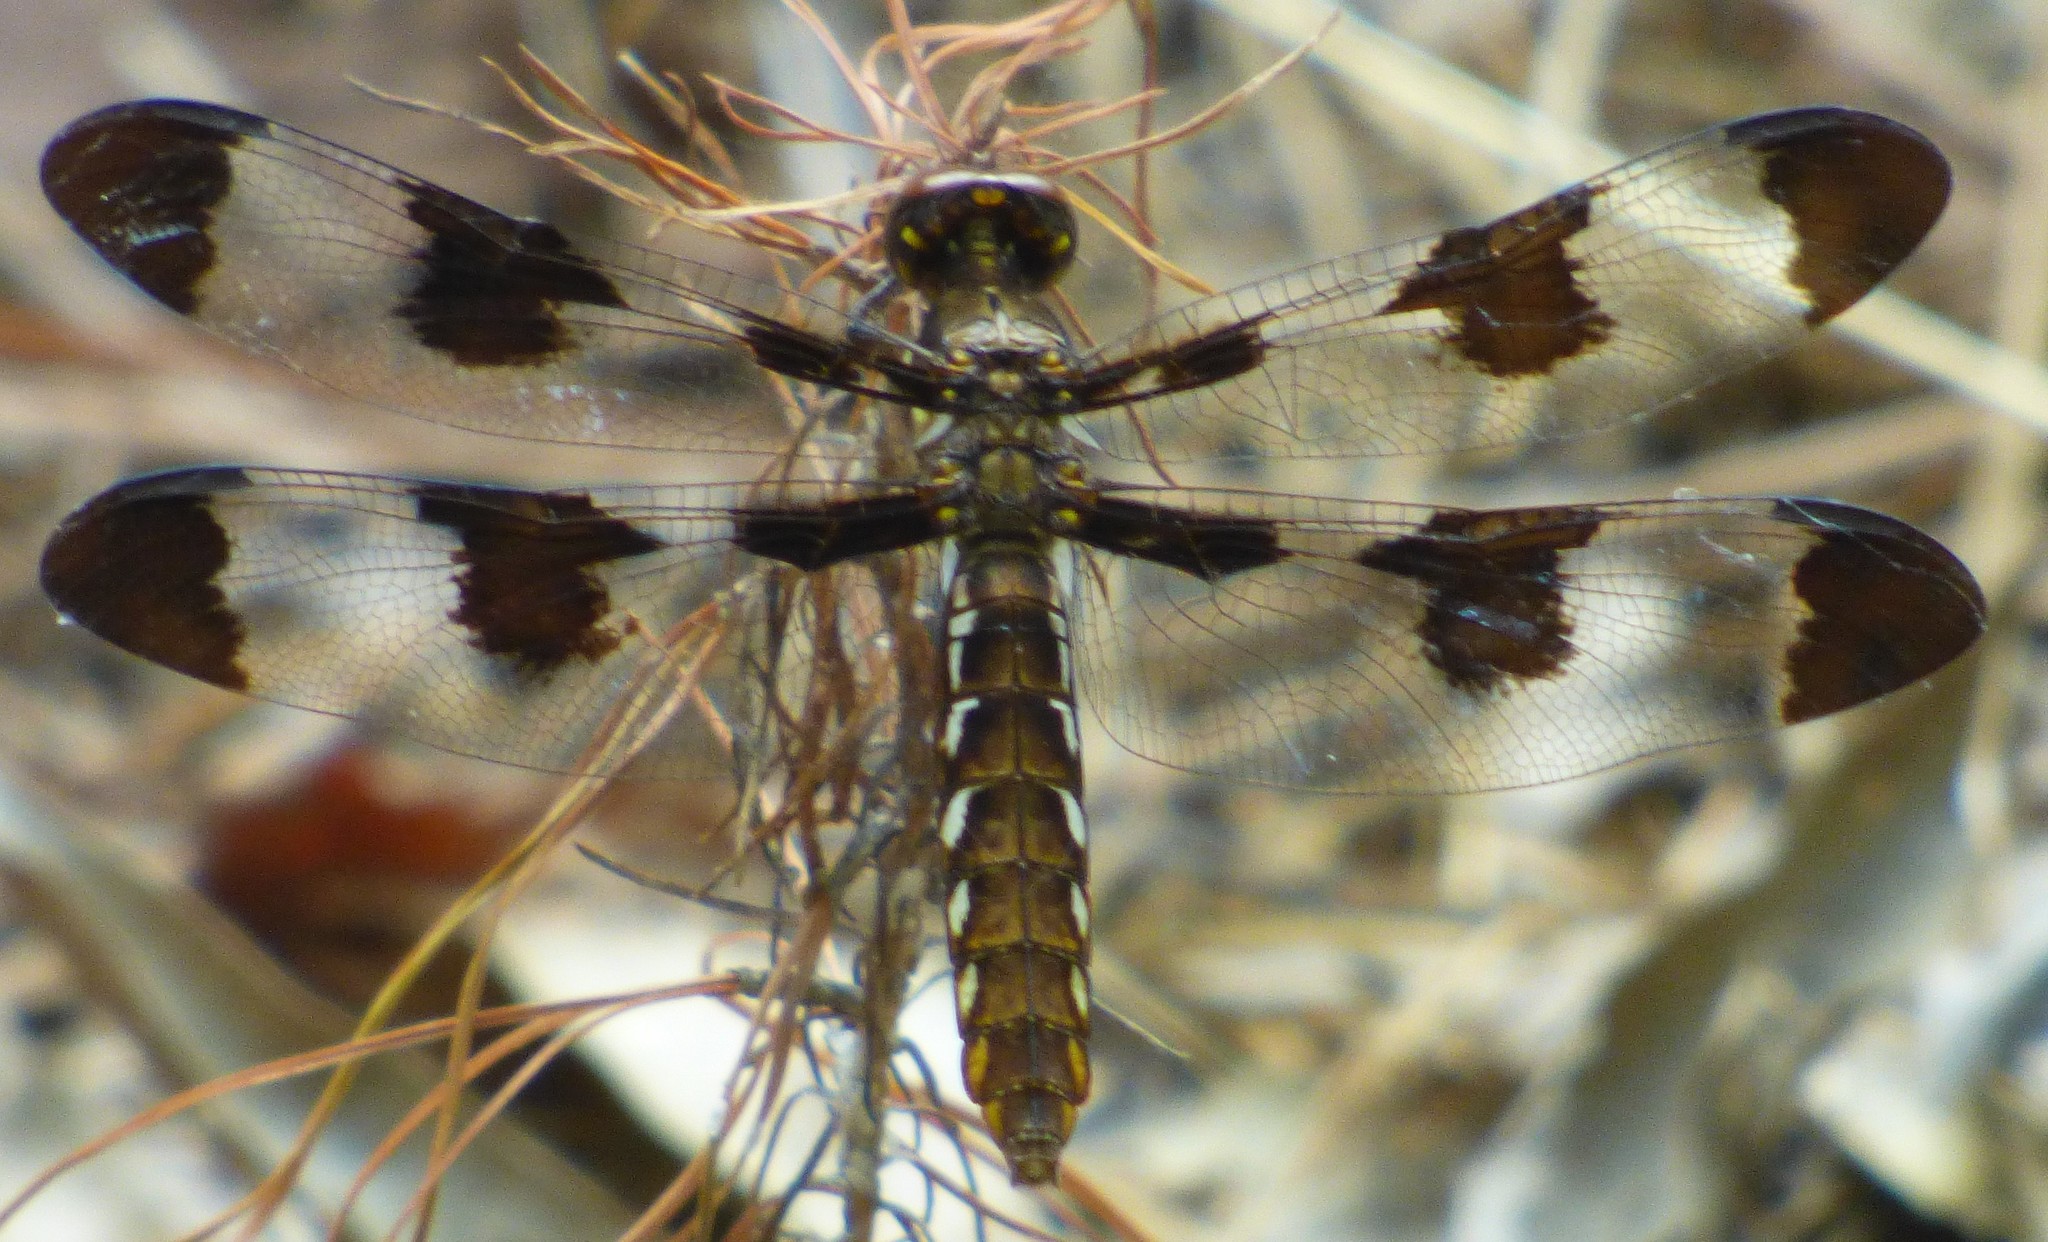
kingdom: Animalia
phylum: Arthropoda
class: Insecta
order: Odonata
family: Libellulidae
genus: Plathemis
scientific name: Plathemis lydia
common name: Common whitetail
